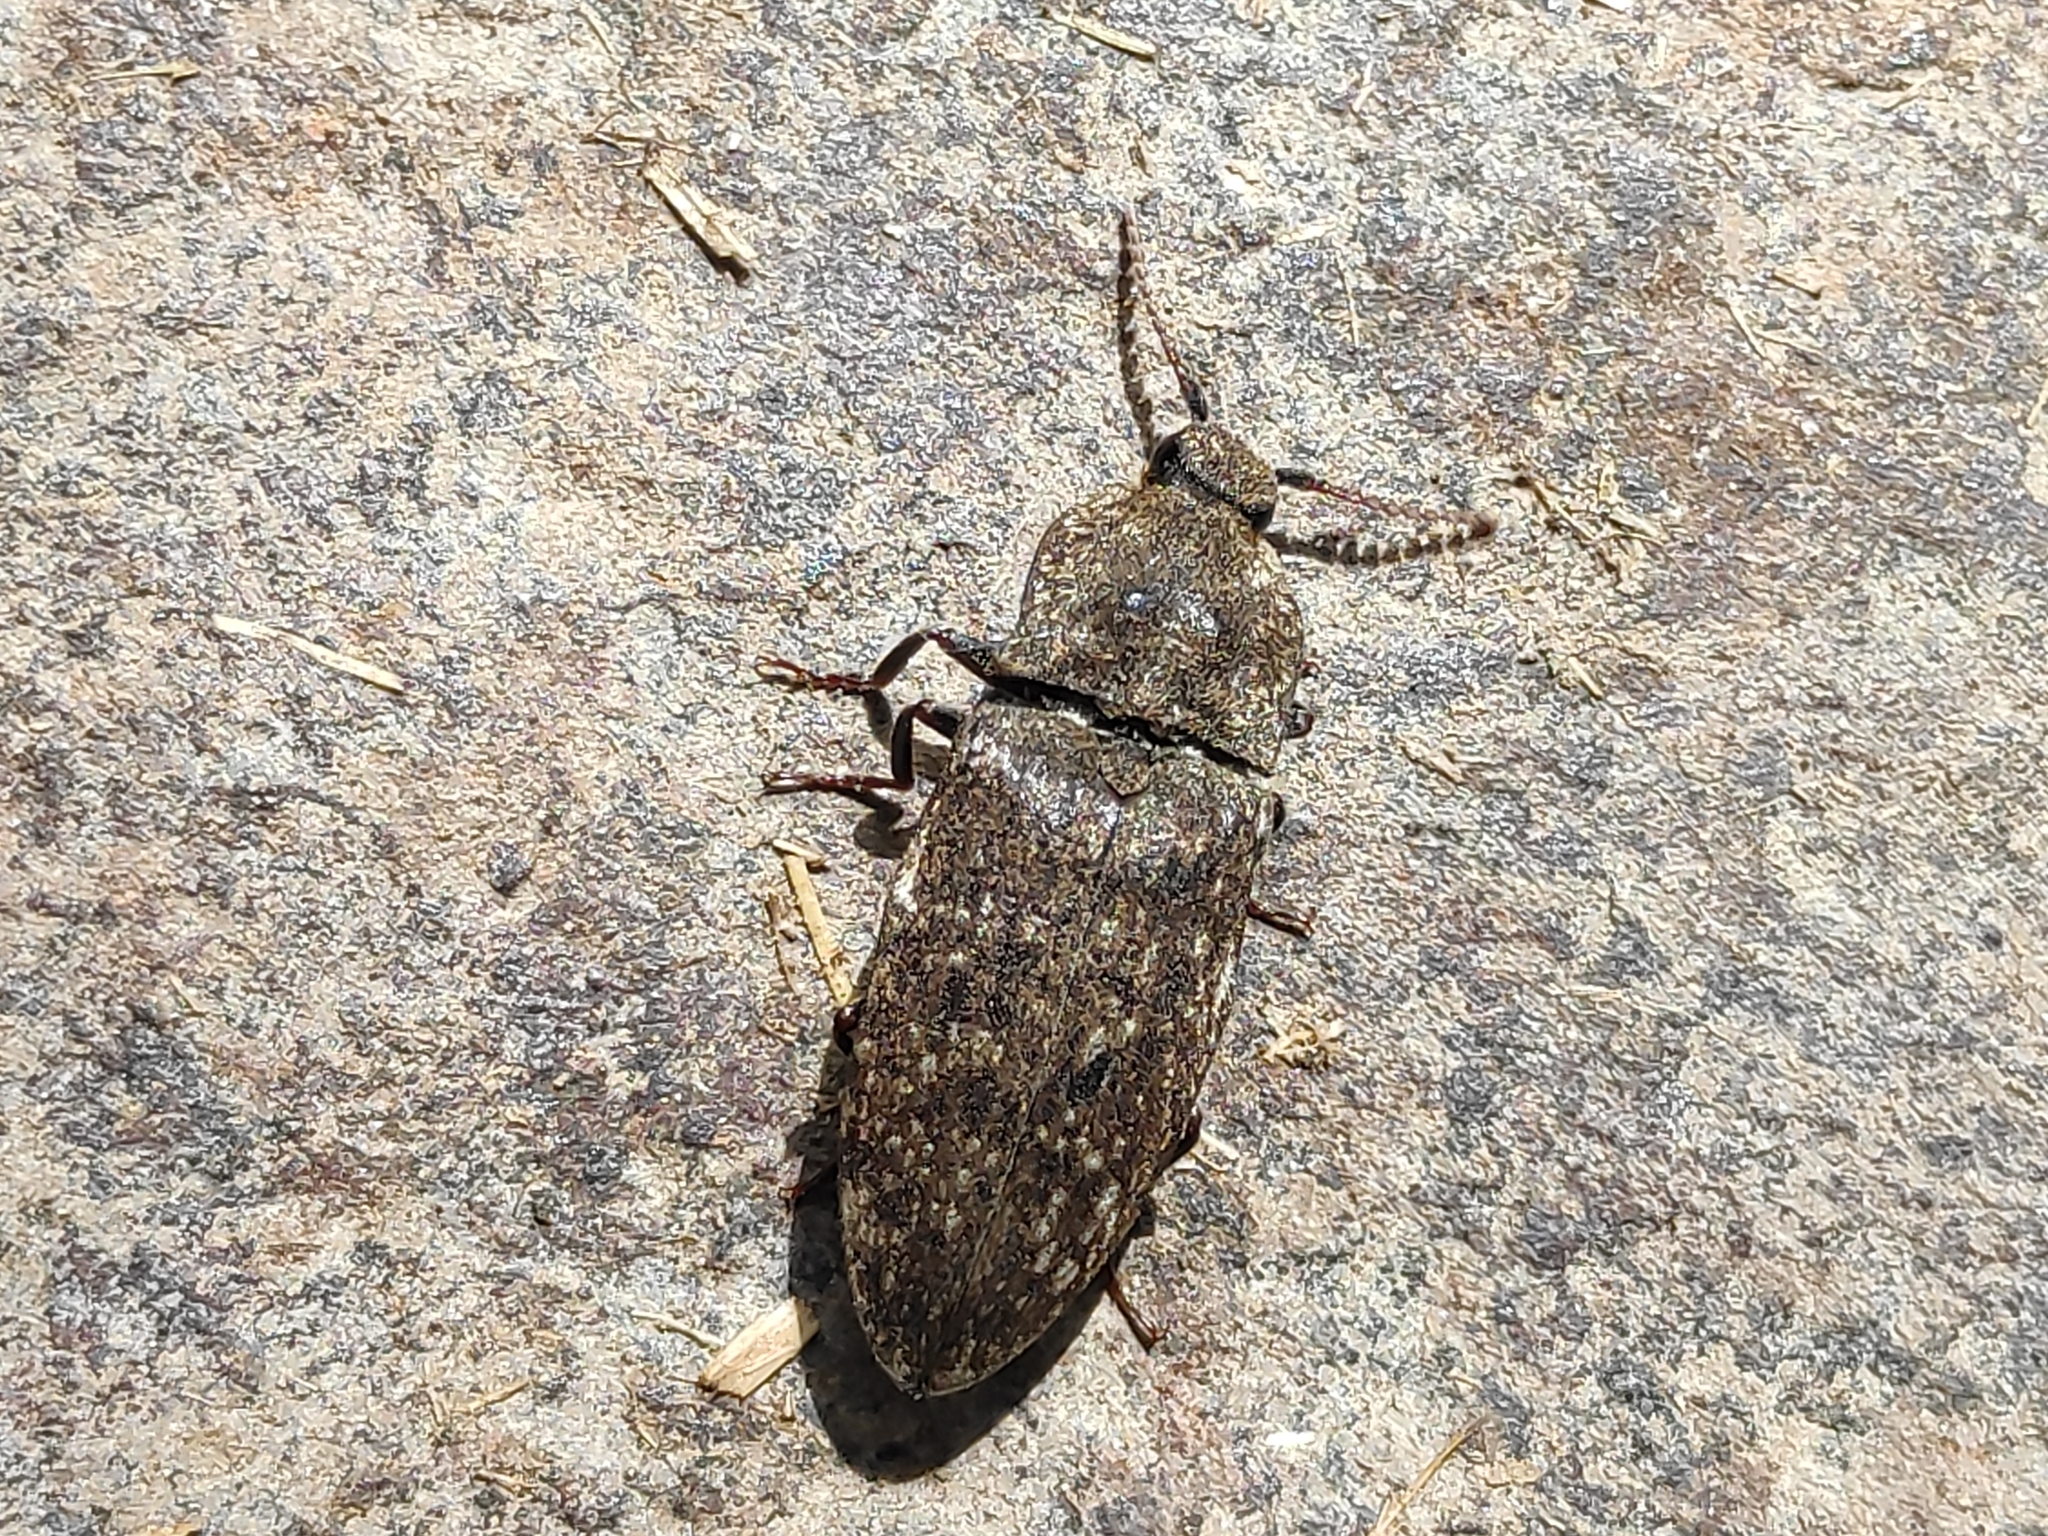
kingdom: Animalia
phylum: Arthropoda
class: Insecta
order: Coleoptera
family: Elateridae
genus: Agrypnus
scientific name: Agrypnus murinus
